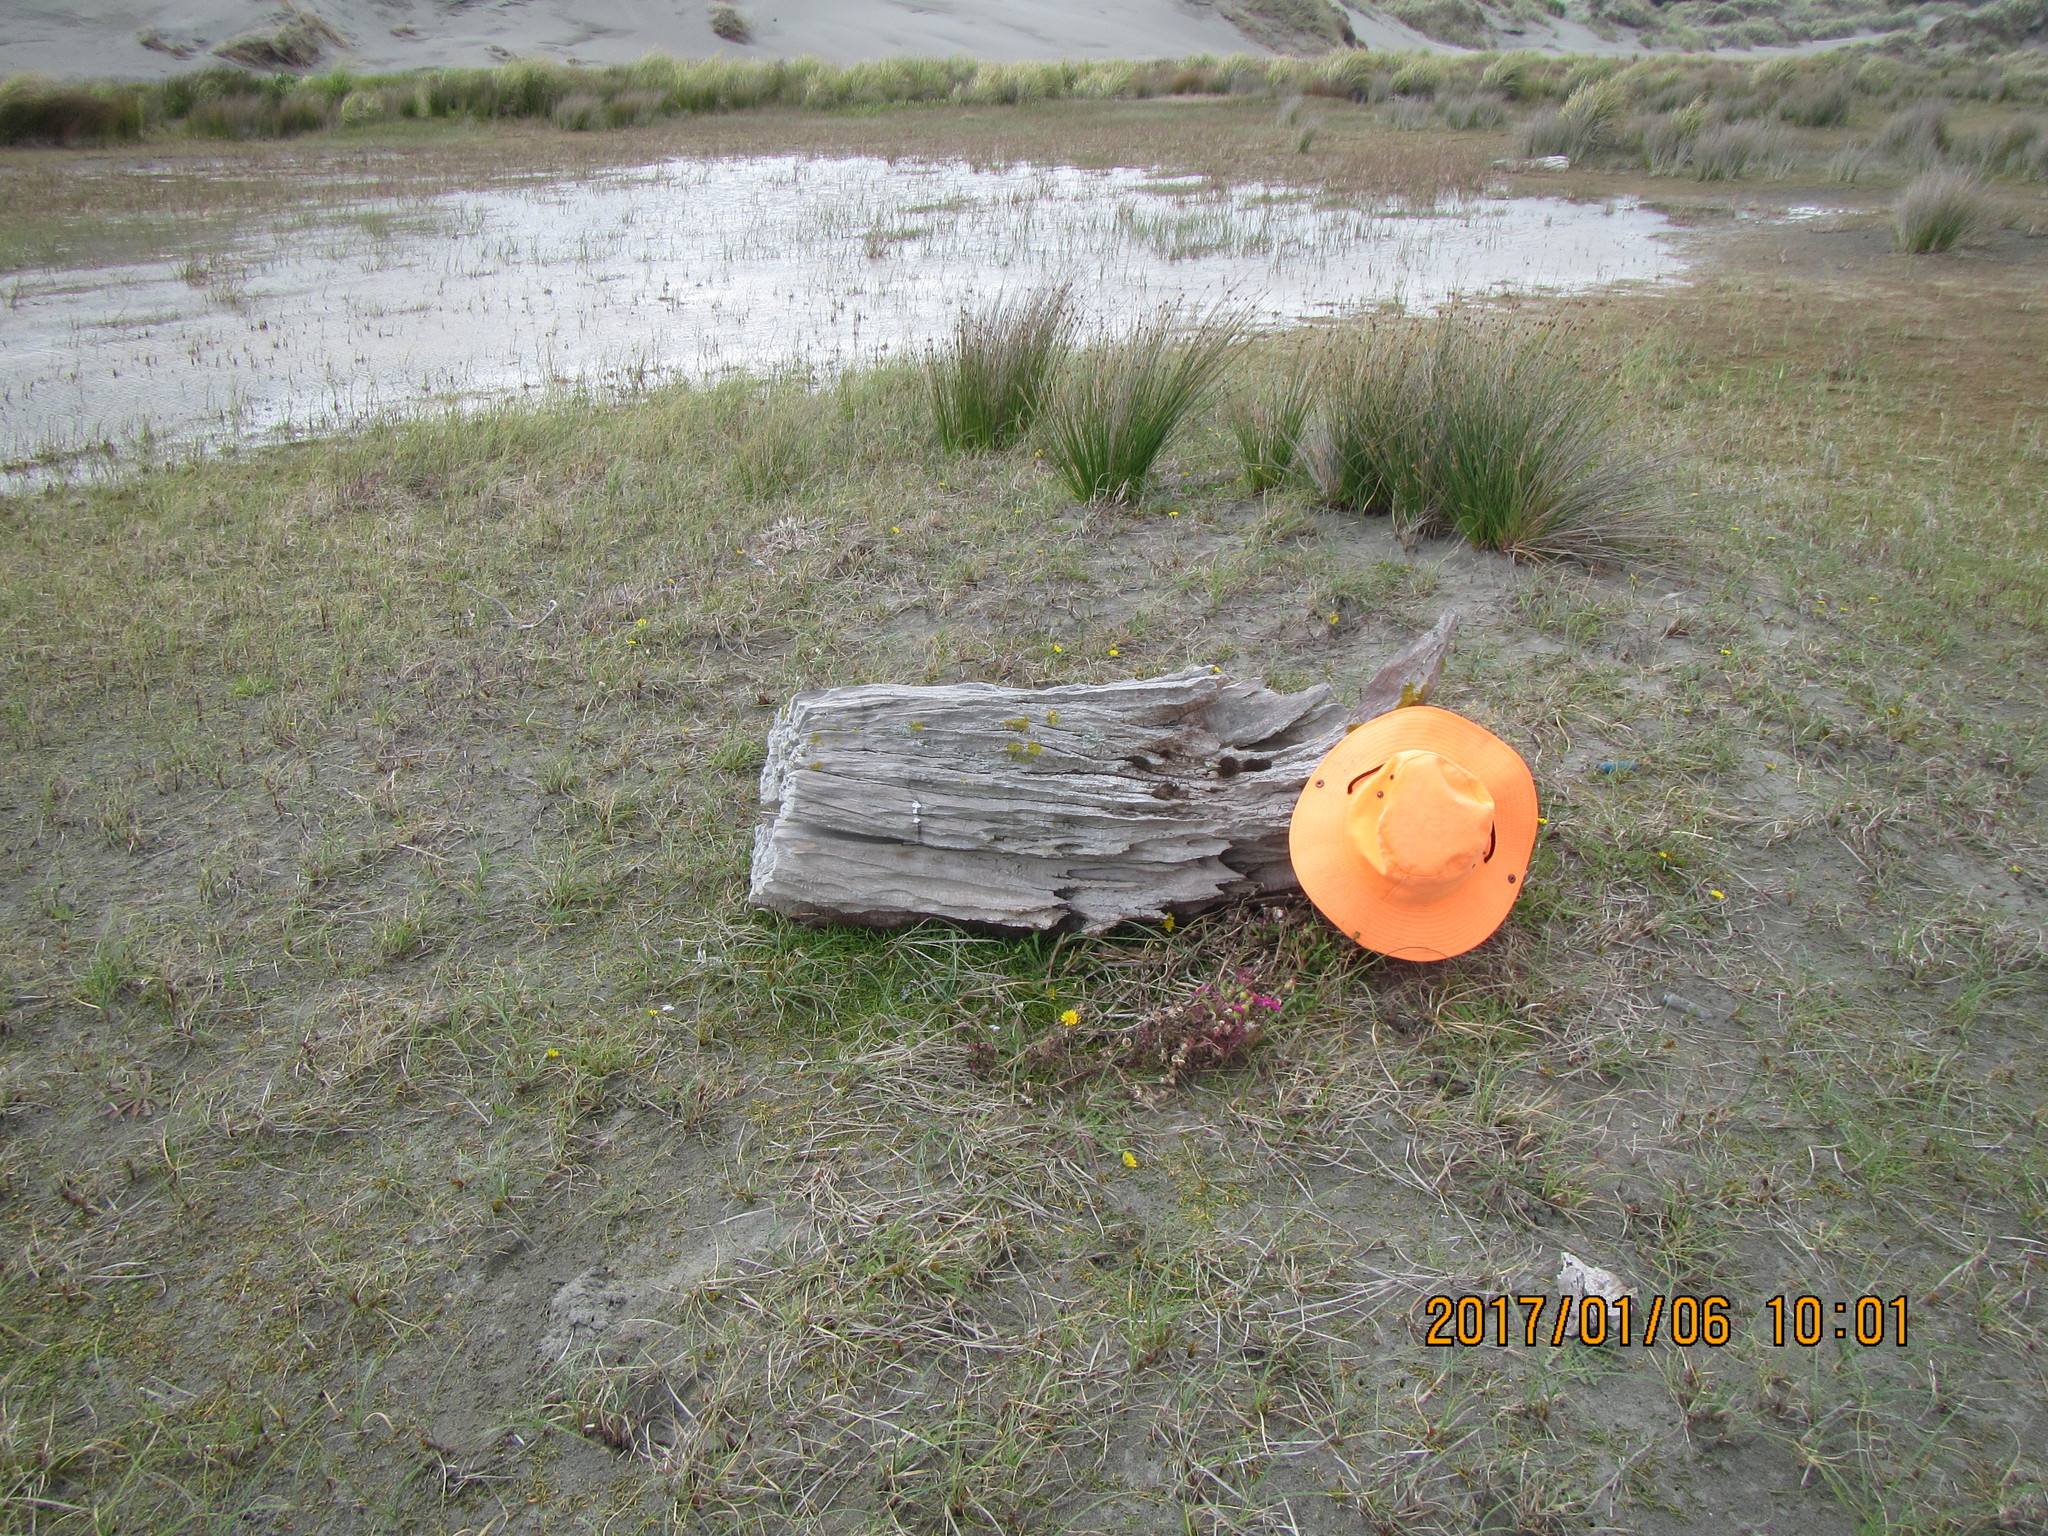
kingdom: Animalia
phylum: Arthropoda
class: Arachnida
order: Araneae
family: Mimetidae
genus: Australomimetus
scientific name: Australomimetus hartleyensis
